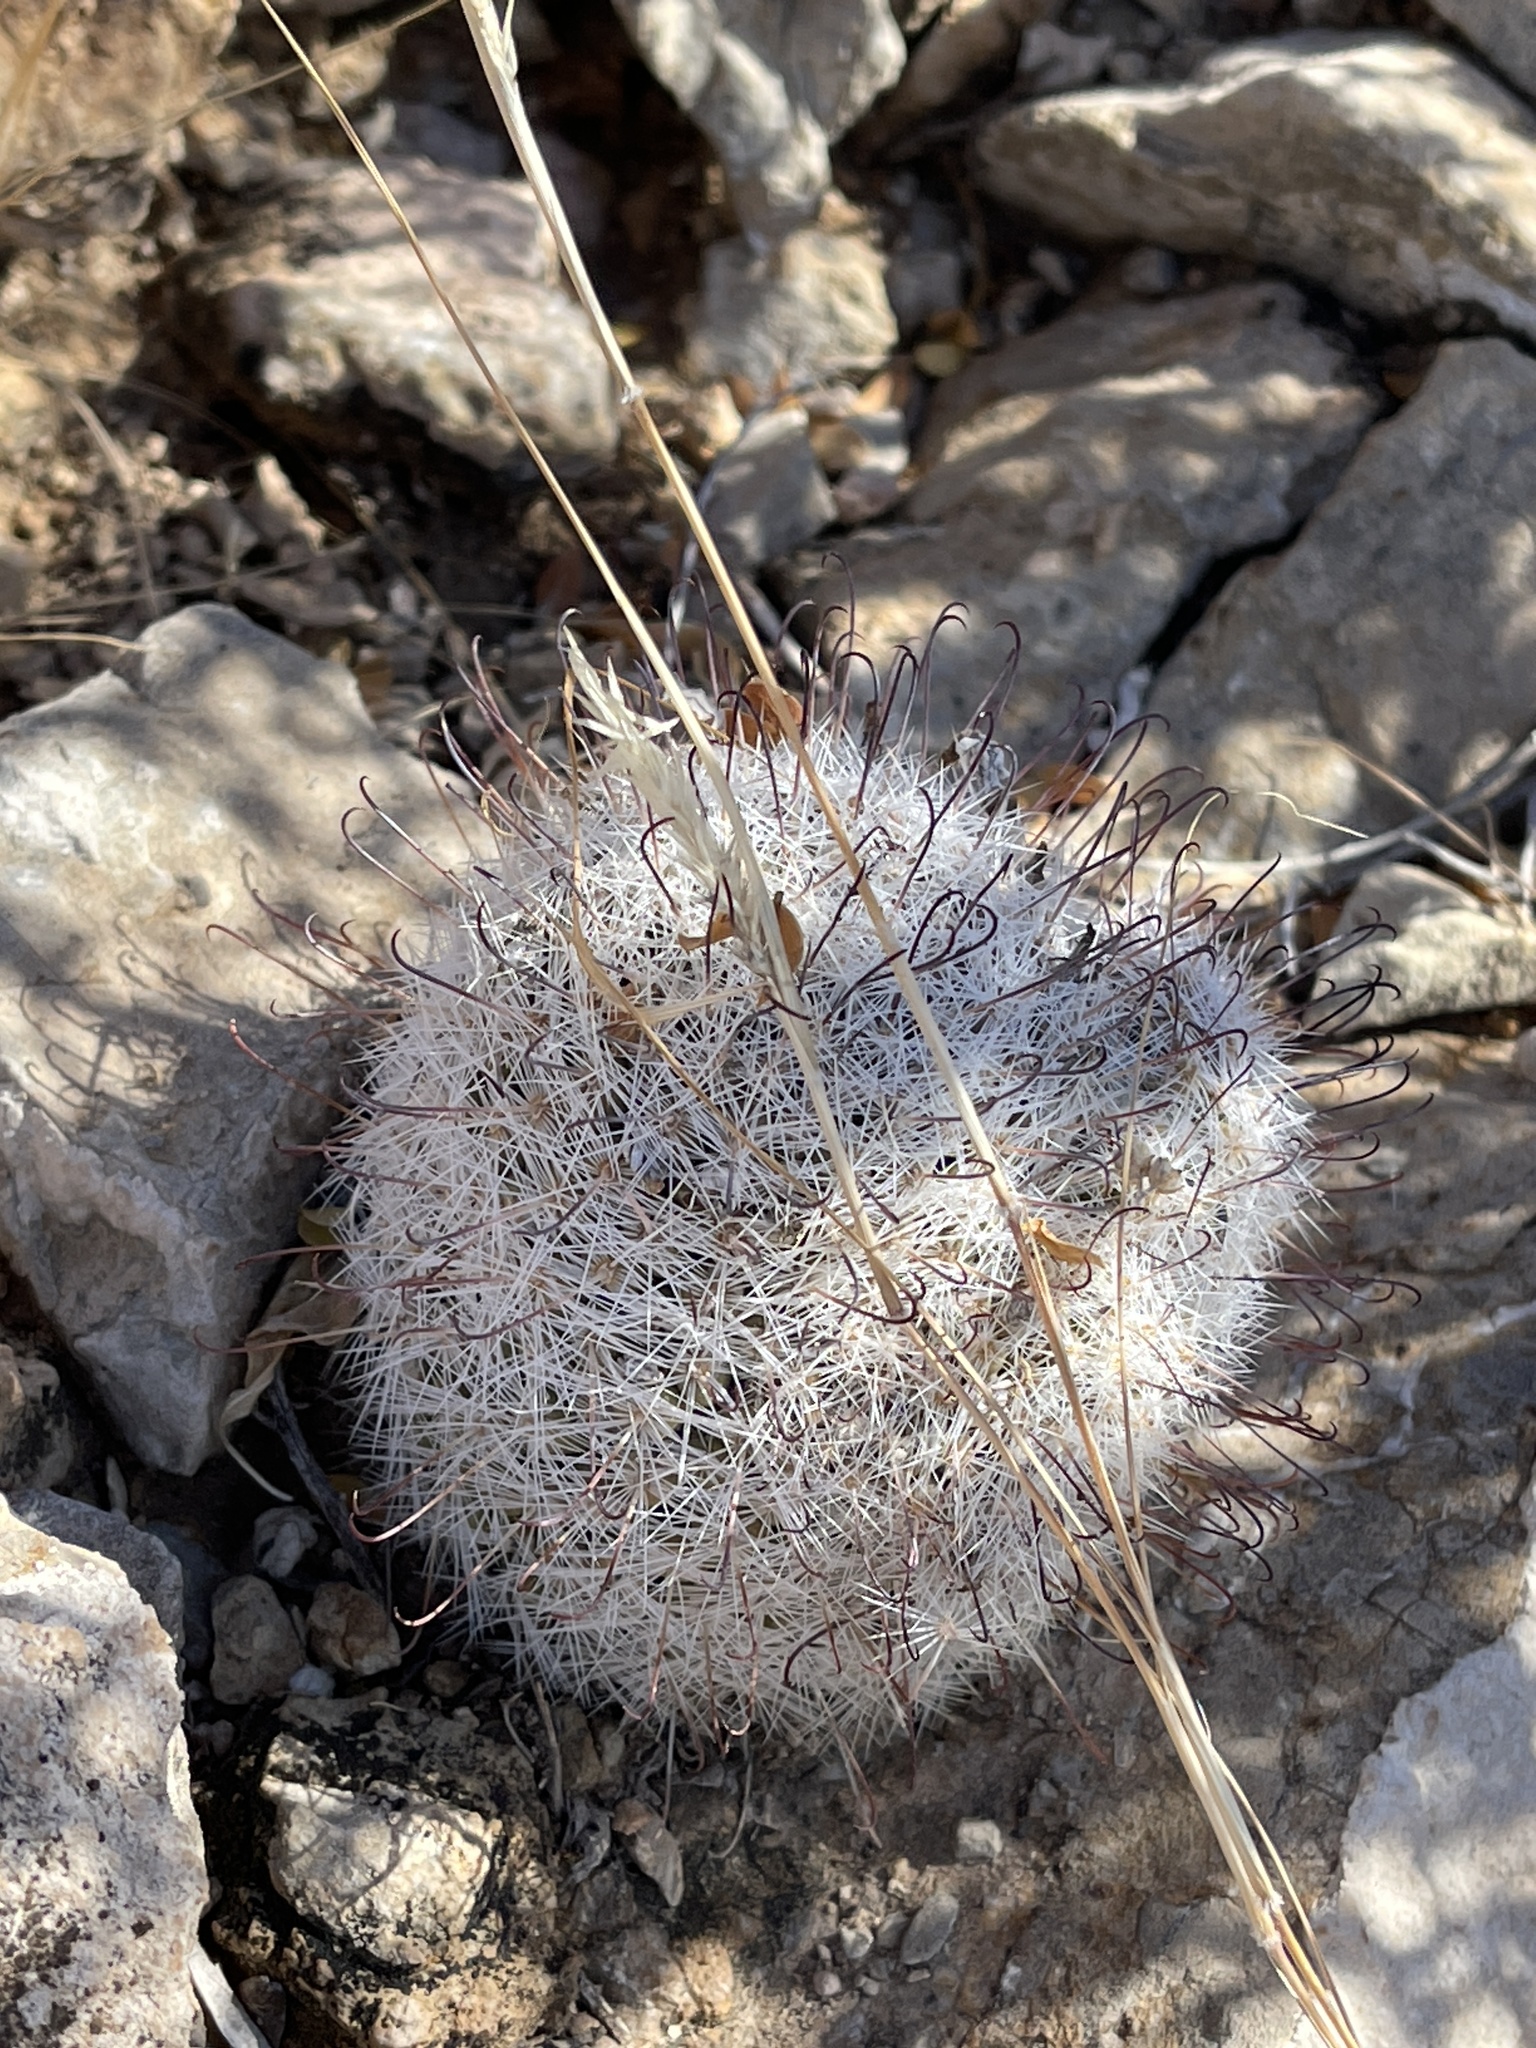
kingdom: Plantae
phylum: Tracheophyta
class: Magnoliopsida
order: Caryophyllales
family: Cactaceae
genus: Cochemiea
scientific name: Cochemiea grahamii
